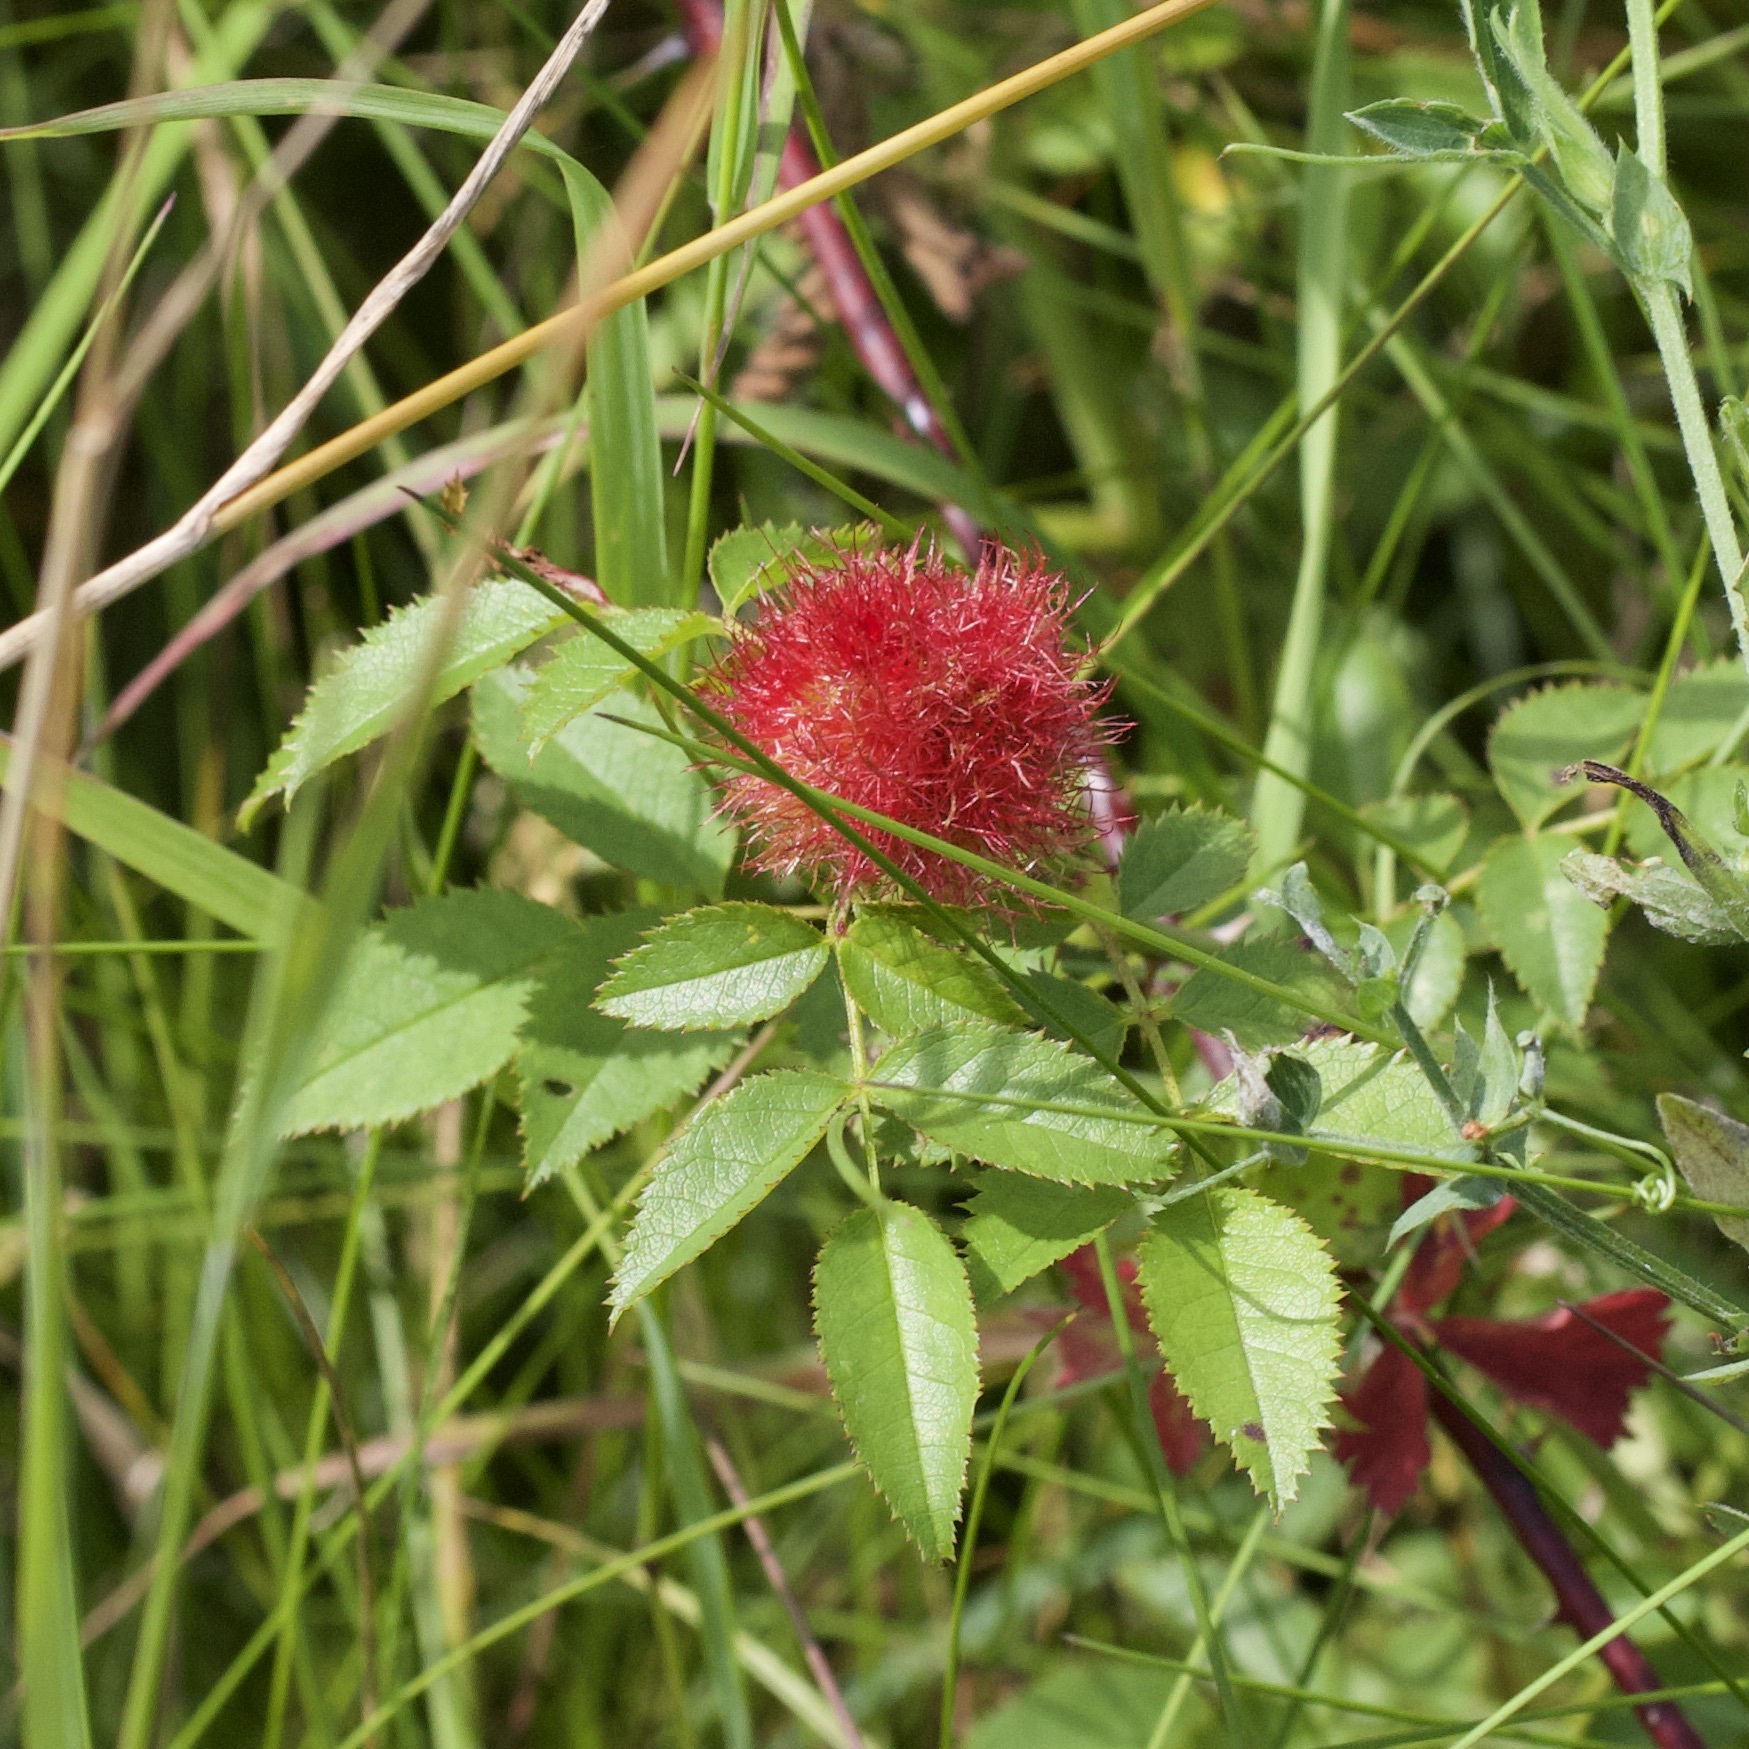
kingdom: Animalia
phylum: Arthropoda
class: Insecta
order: Hymenoptera
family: Cynipidae
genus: Diplolepis
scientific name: Diplolepis rosae
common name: Bedeguar gall
